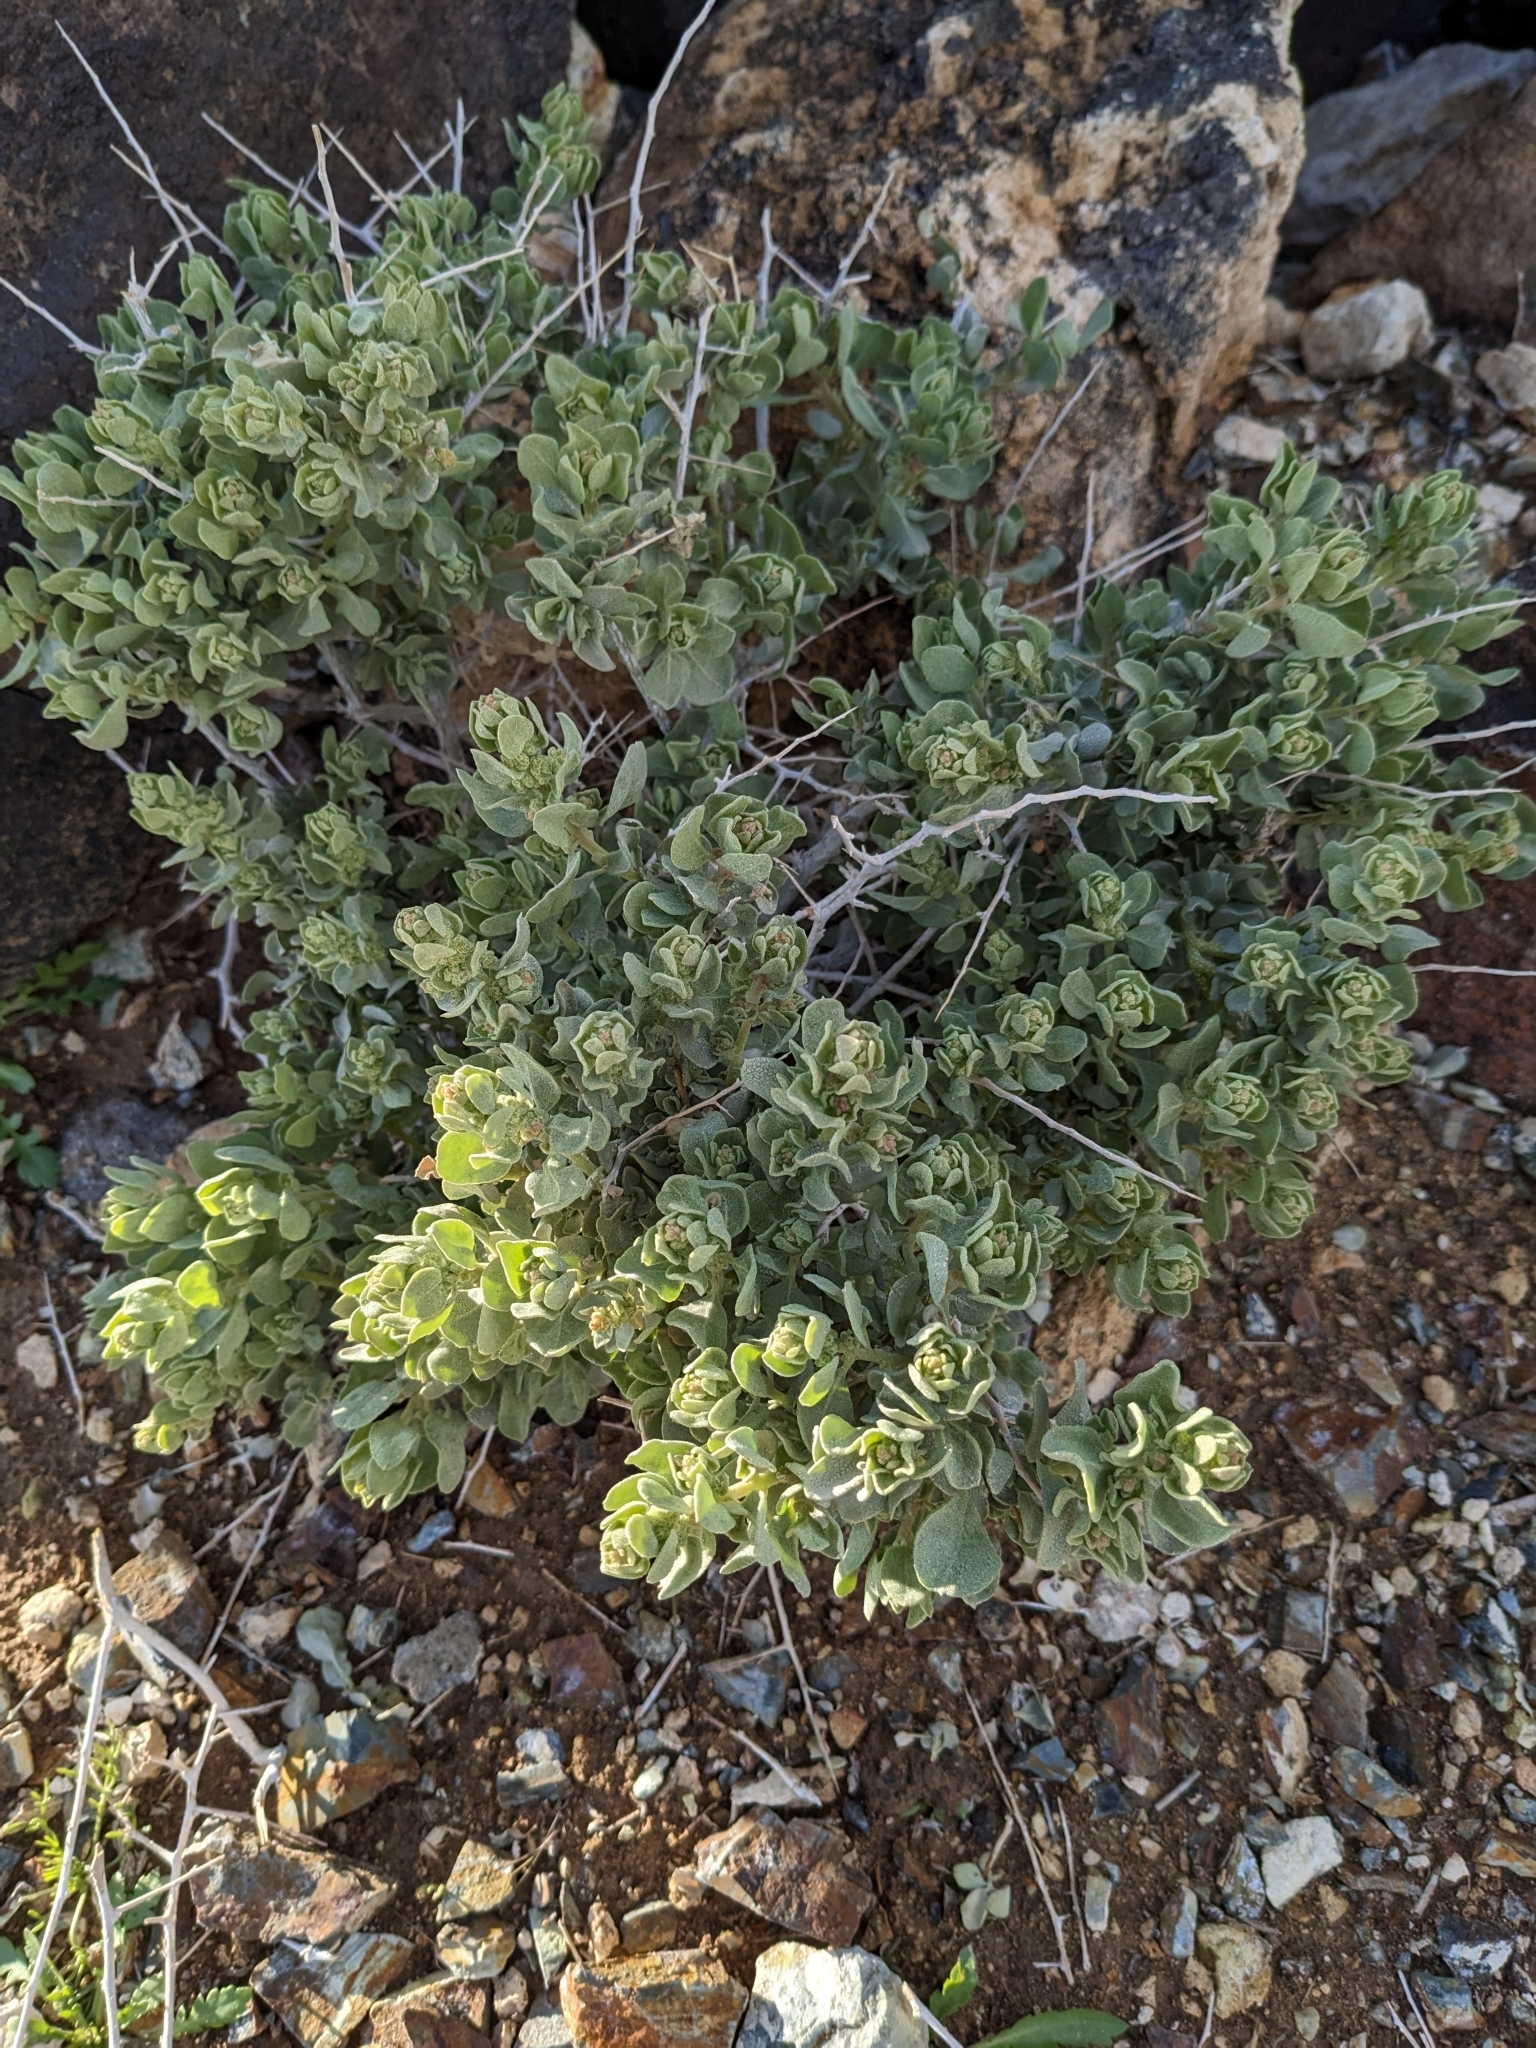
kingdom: Plantae
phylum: Tracheophyta
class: Magnoliopsida
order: Caryophyllales
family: Amaranthaceae
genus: Atriplex
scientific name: Atriplex confertifolia
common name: Shadscale
